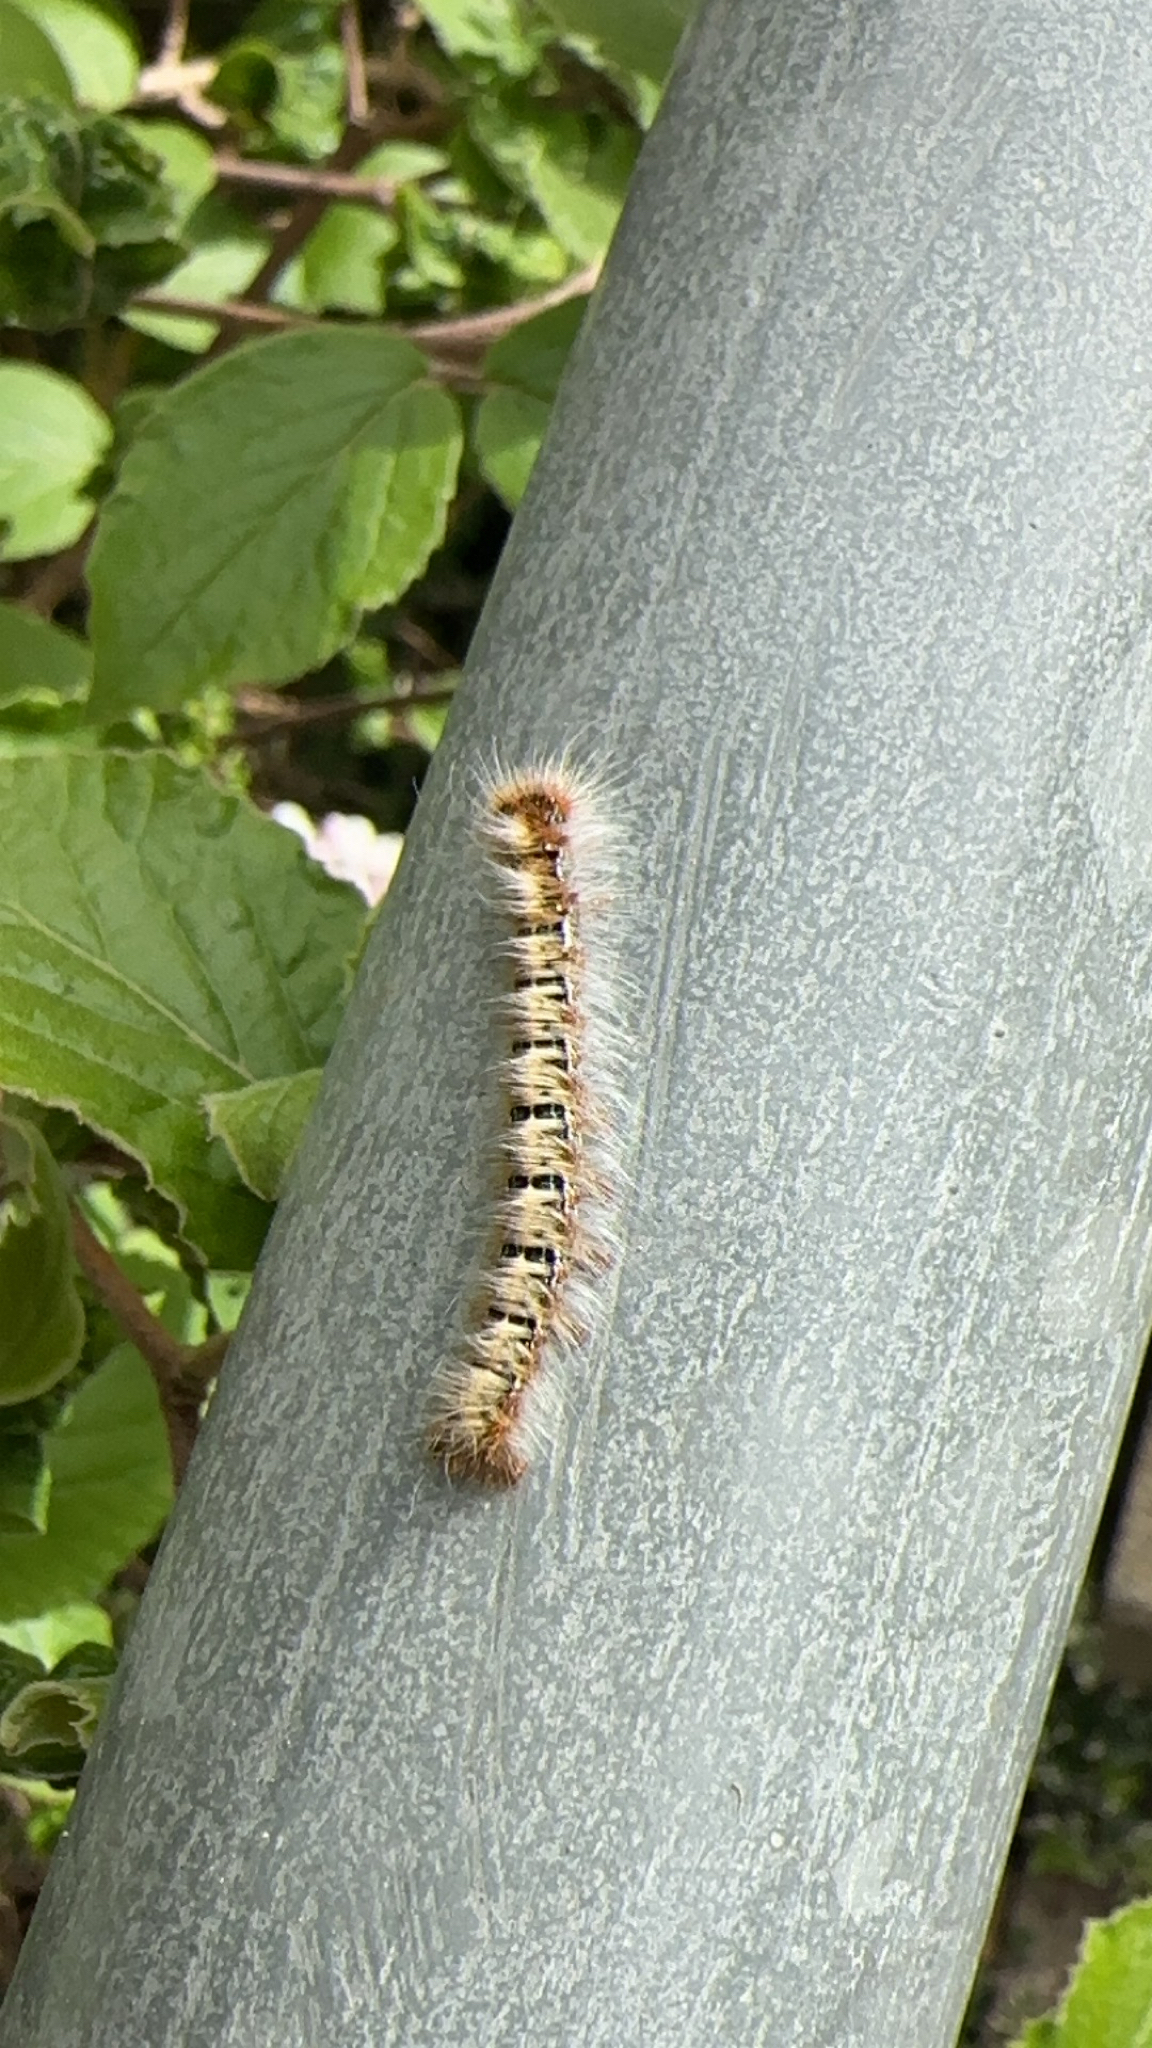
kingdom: Animalia
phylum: Arthropoda
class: Insecta
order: Lepidoptera
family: Lasiocampidae
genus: Lasiocampa
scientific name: Lasiocampa quercus
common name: Oak eggar
